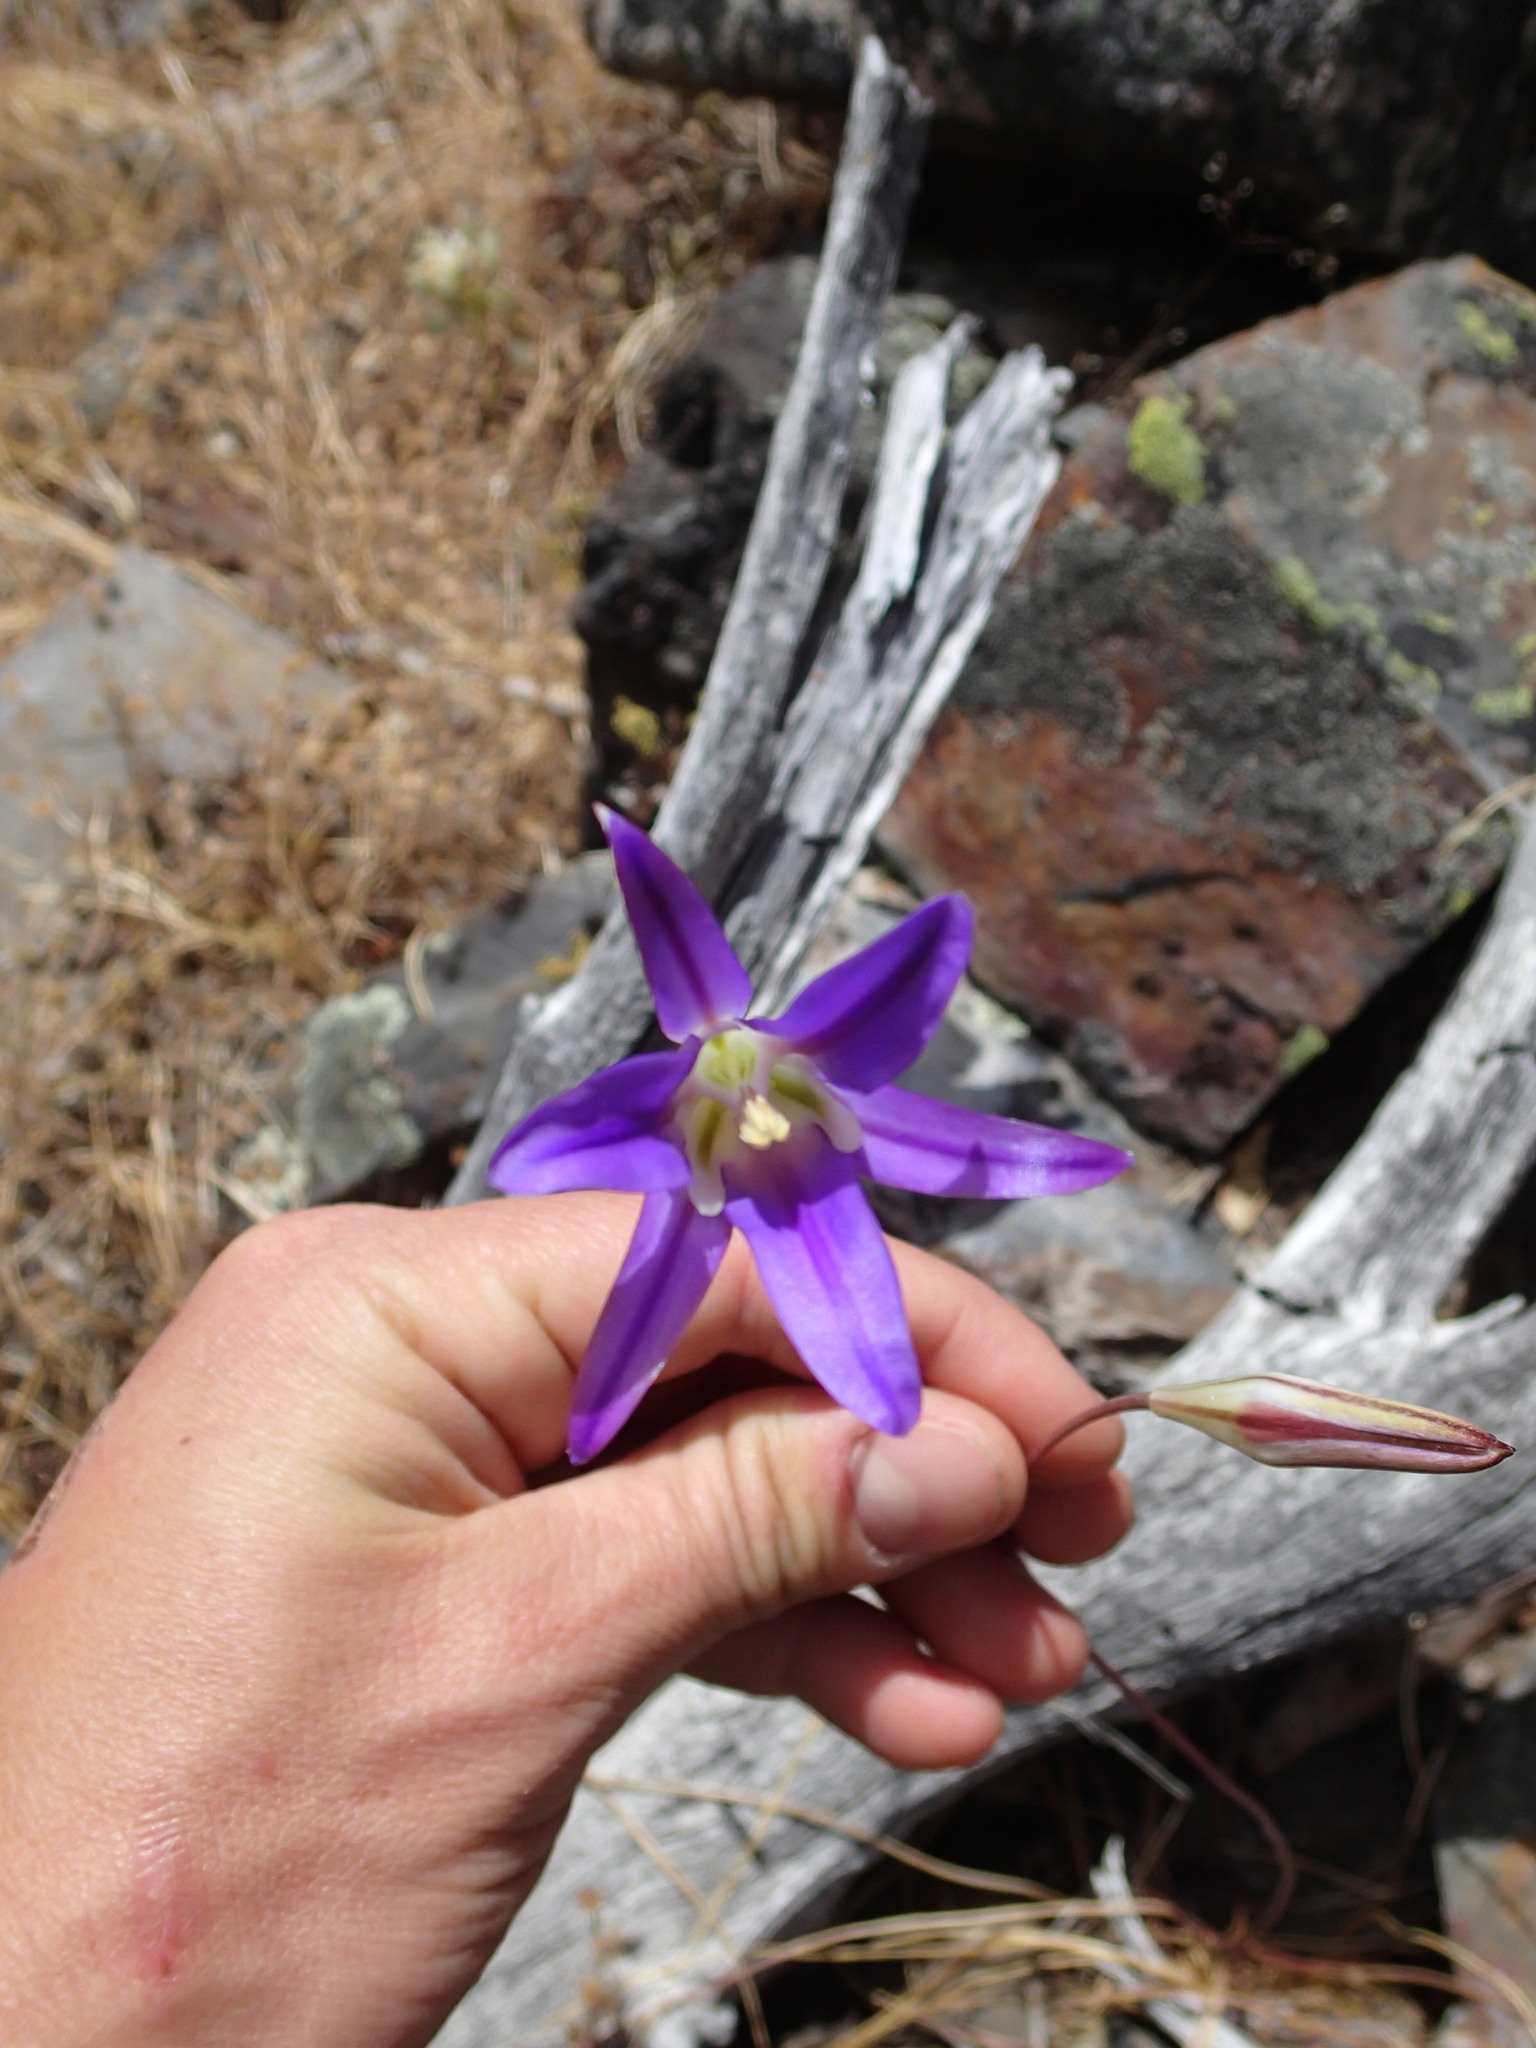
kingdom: Plantae
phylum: Tracheophyta
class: Liliopsida
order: Asparagales
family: Asparagaceae
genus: Brodiaea
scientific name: Brodiaea elegans
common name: Elegant cluster-lily
